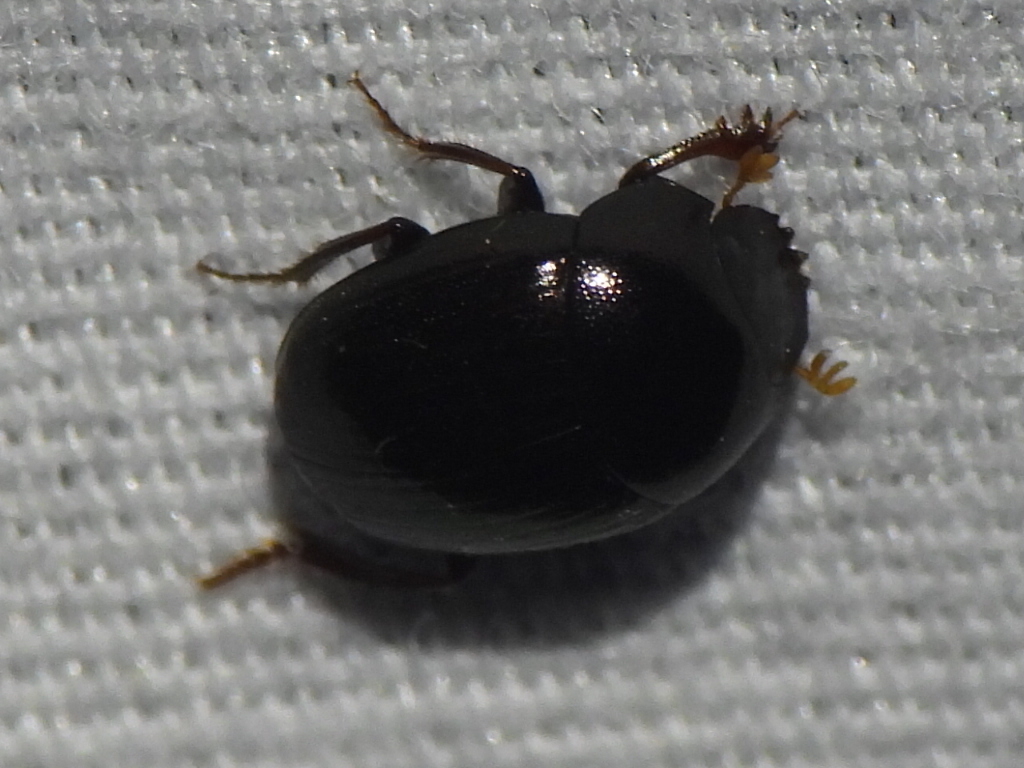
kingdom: Animalia
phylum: Arthropoda
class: Insecta
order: Coleoptera
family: Scarabaeidae
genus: Pseudocanthon
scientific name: Pseudocanthon perplexus
